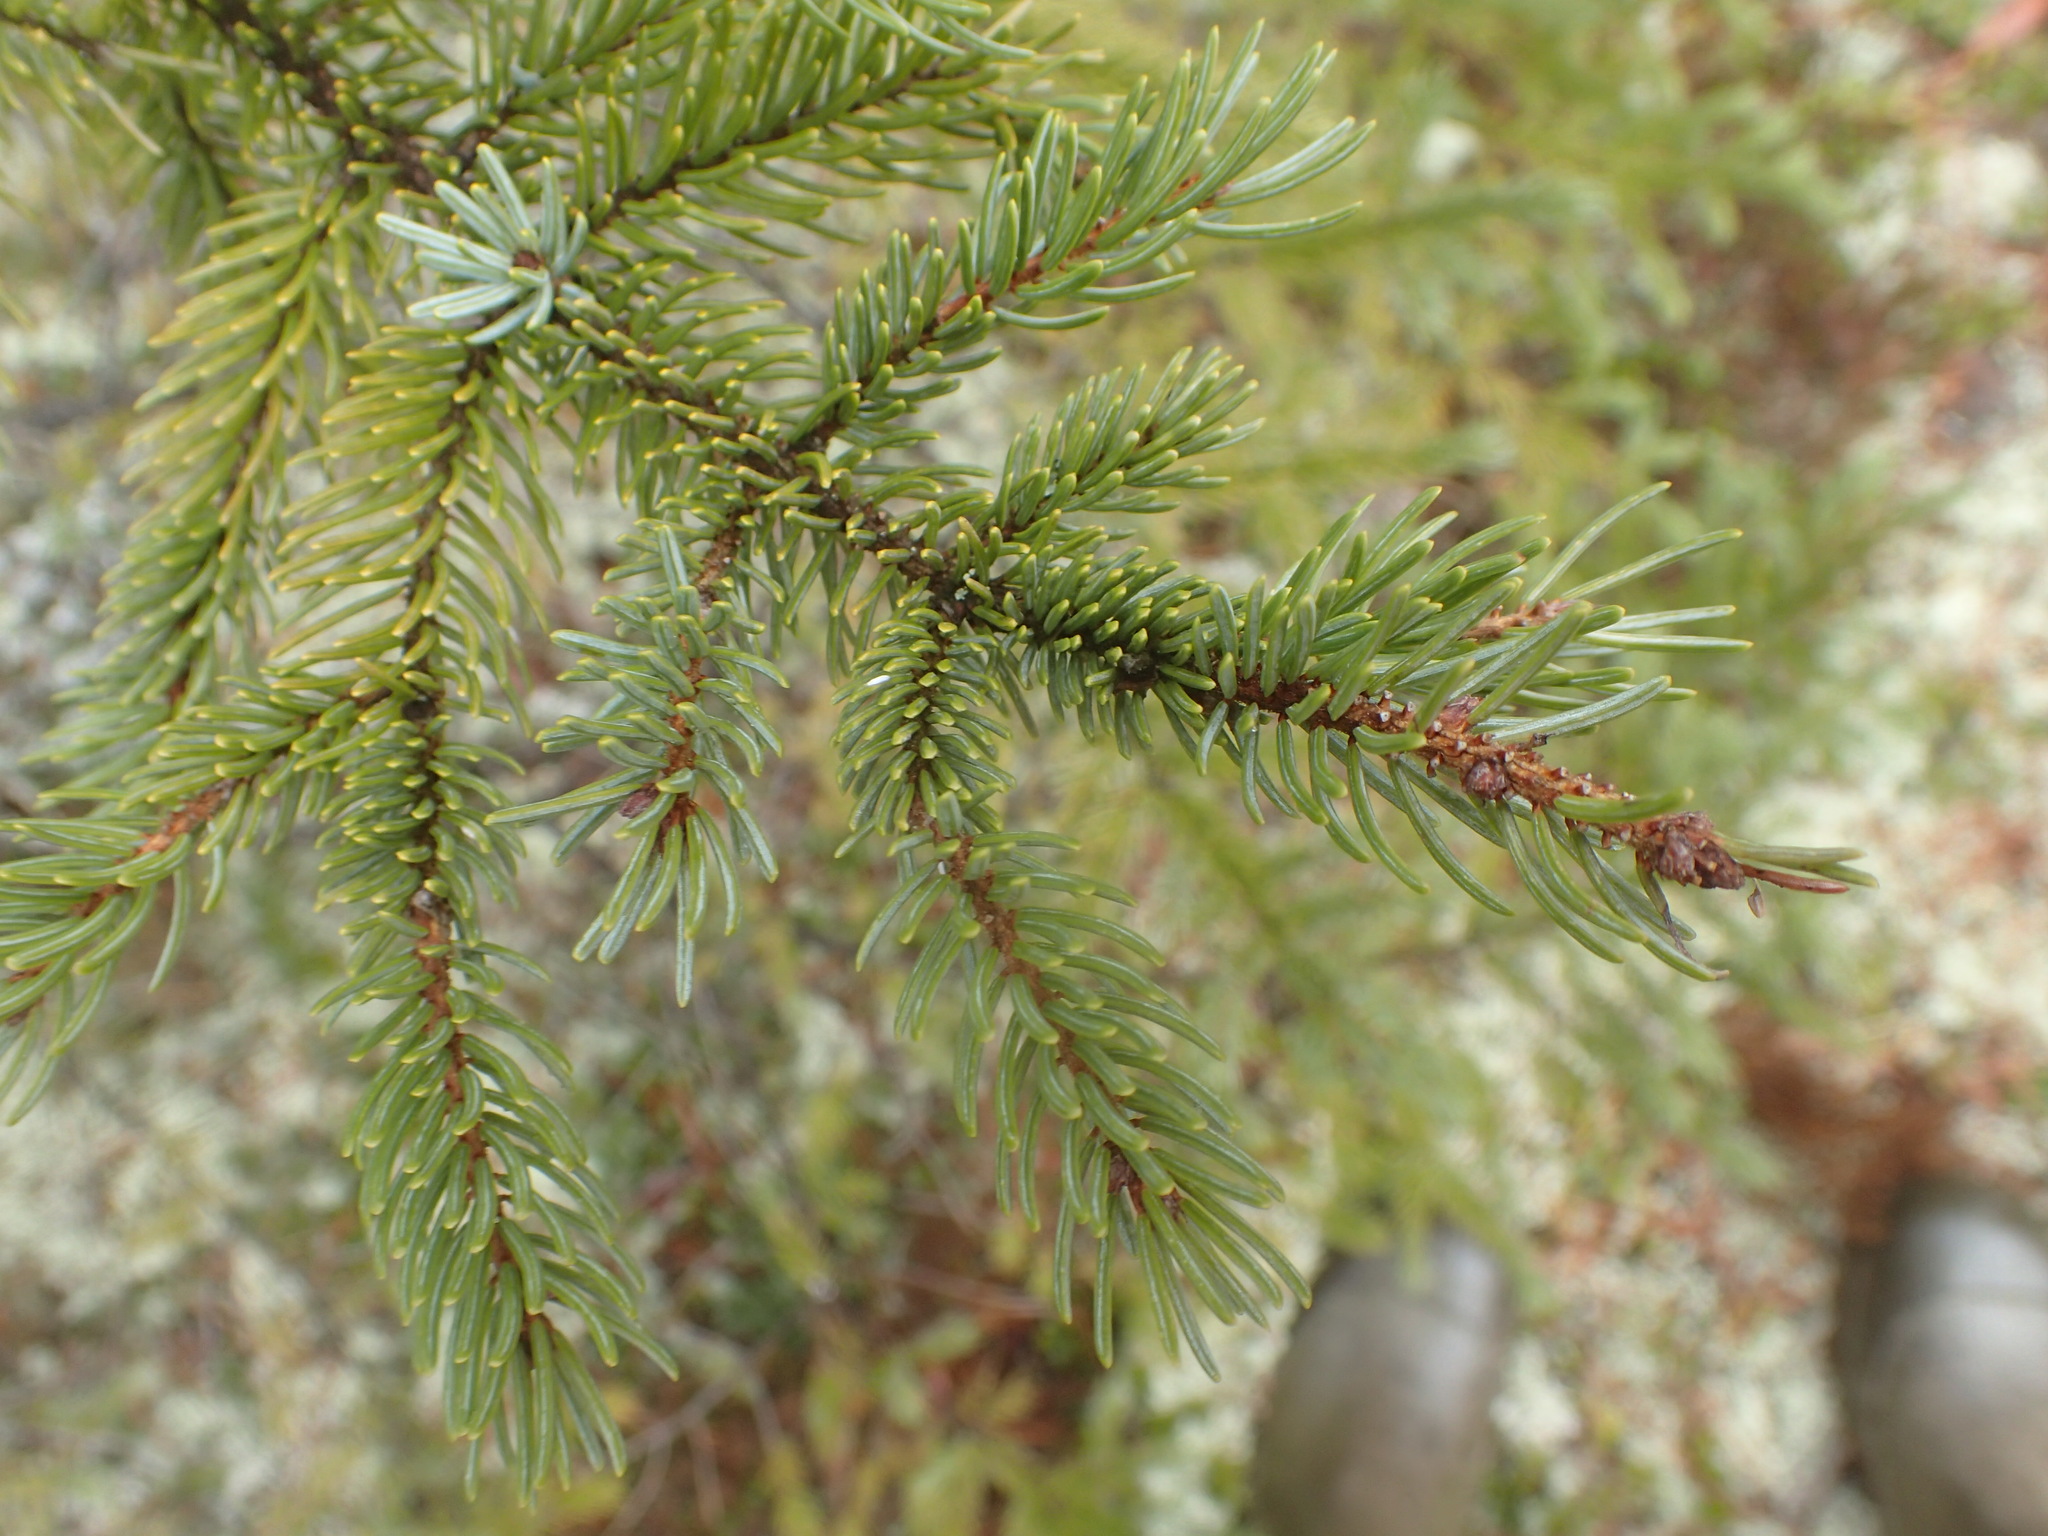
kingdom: Plantae
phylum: Tracheophyta
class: Pinopsida
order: Pinales
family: Pinaceae
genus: Picea
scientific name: Picea mariana
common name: Black spruce
